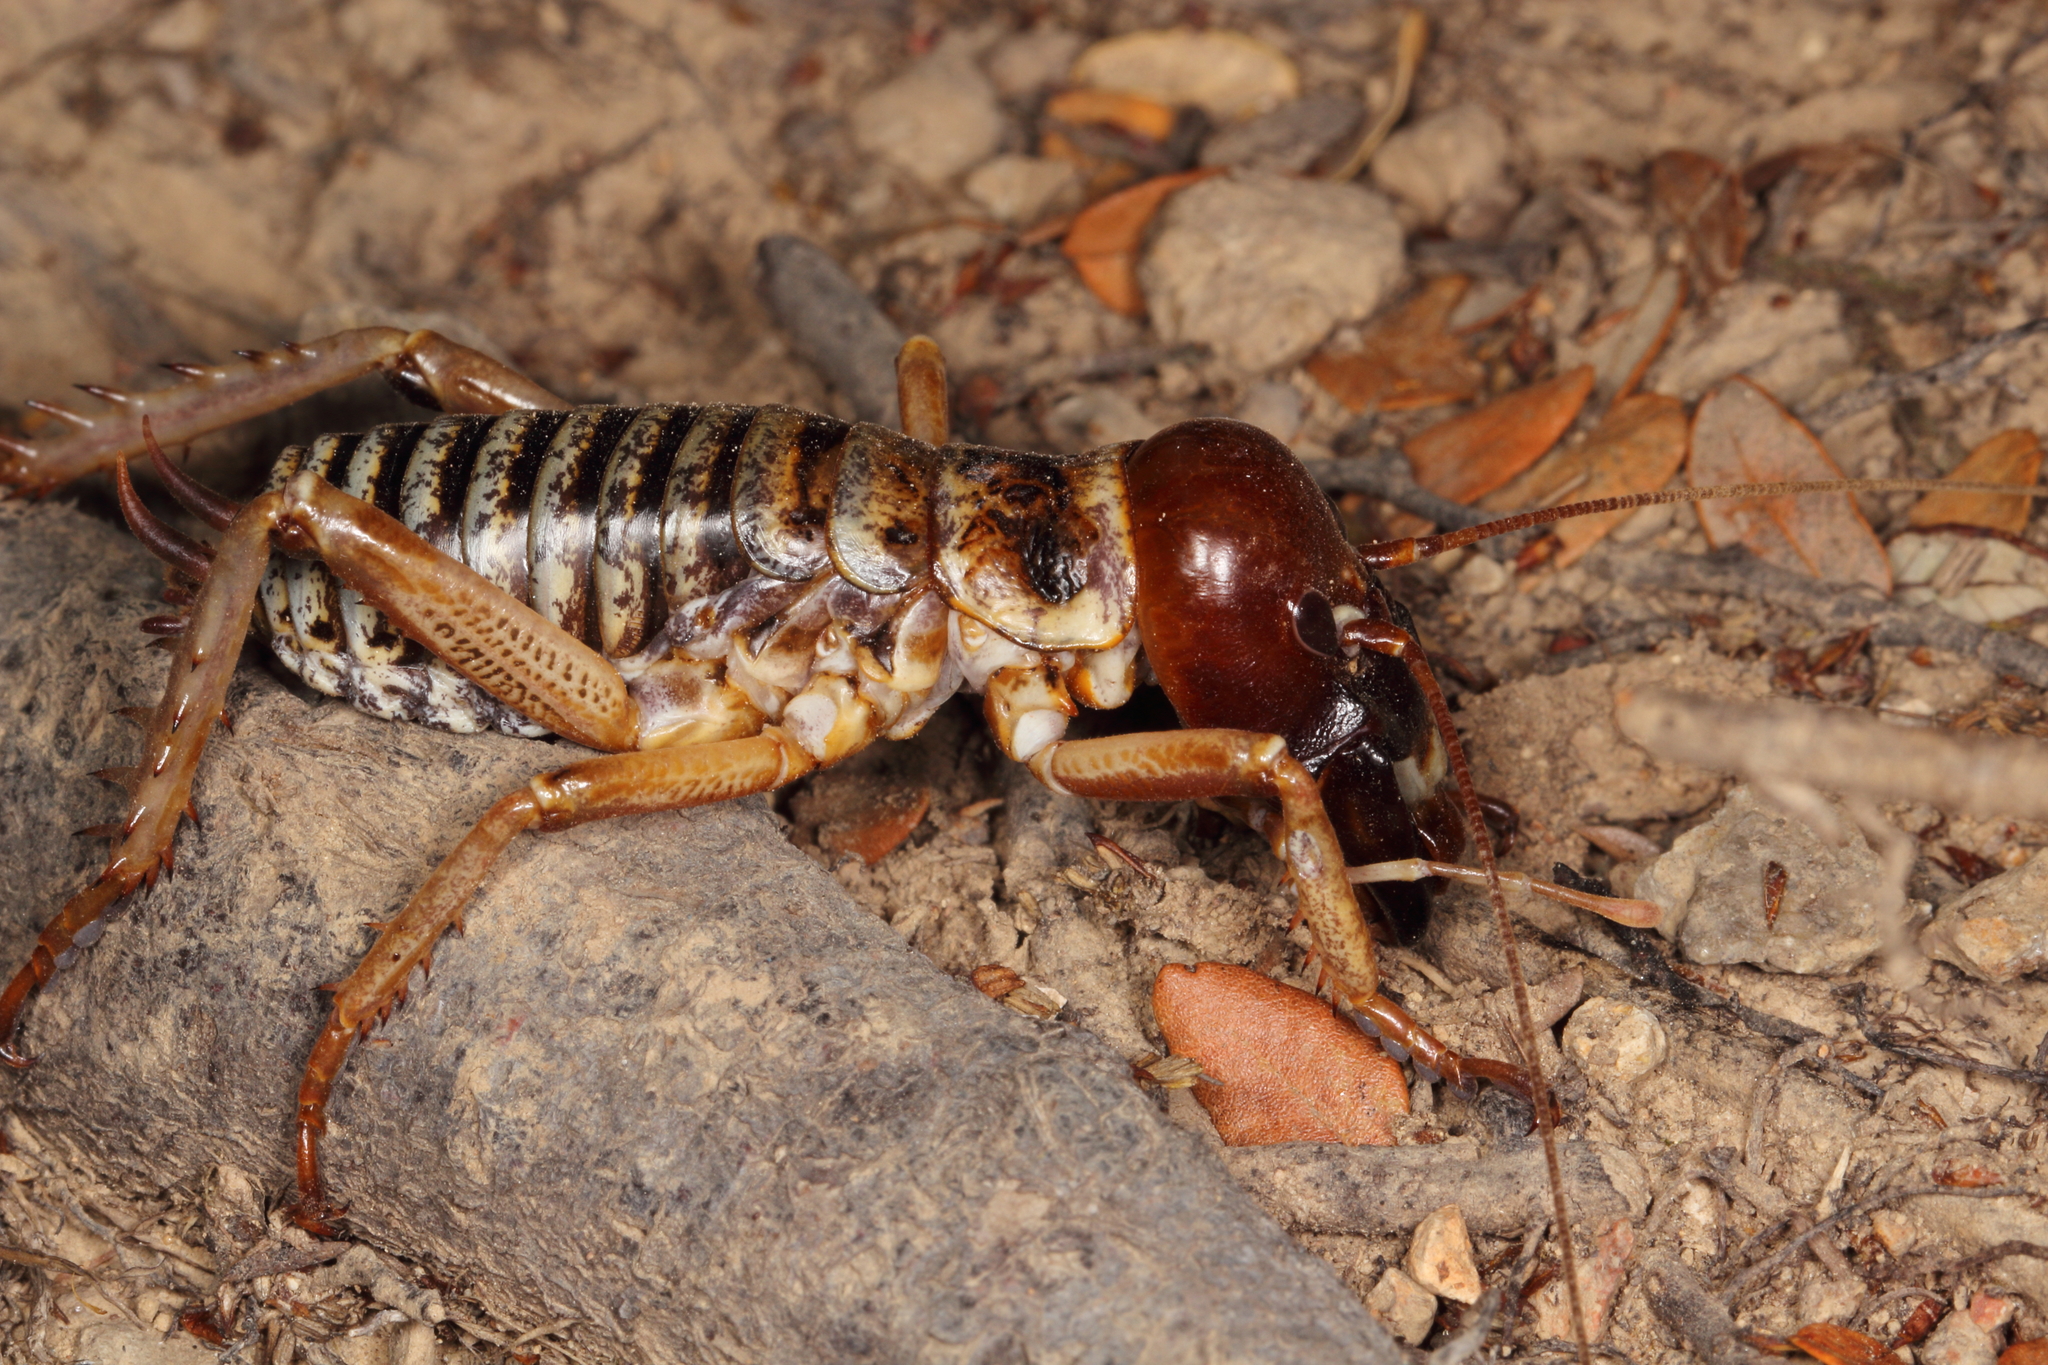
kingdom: Animalia
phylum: Arthropoda
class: Insecta
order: Orthoptera
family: Anostostomatidae
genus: Hemideina
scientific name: Hemideina maori
